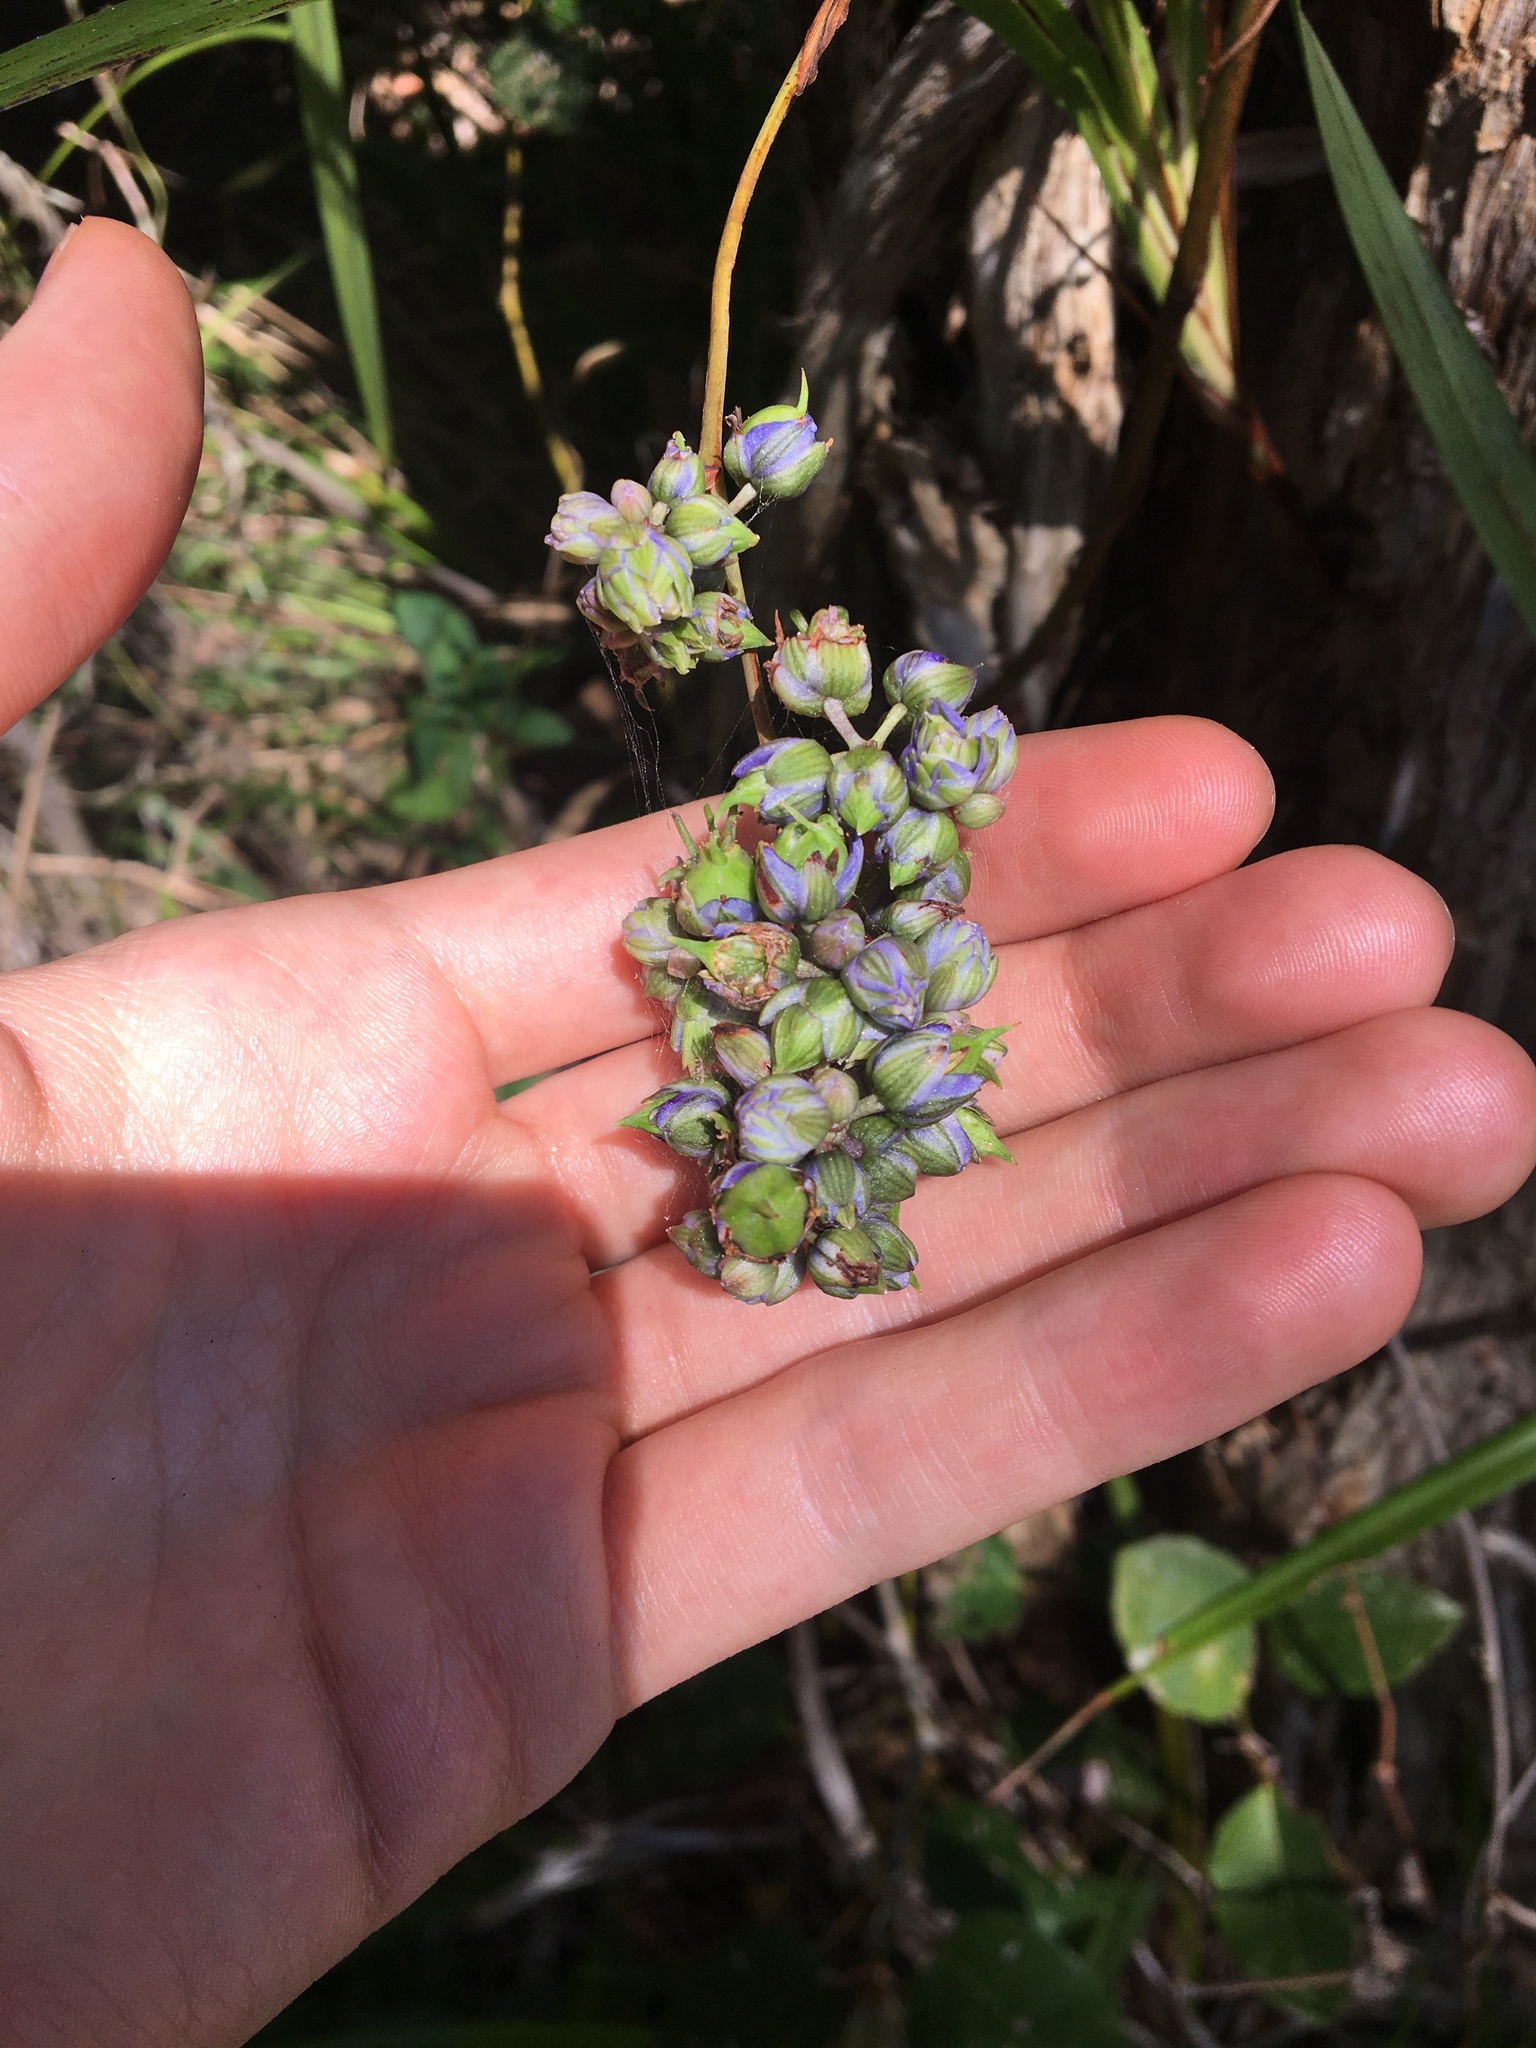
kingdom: Plantae
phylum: Tracheophyta
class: Liliopsida
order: Asparagales
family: Asphodelaceae
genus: Dianella
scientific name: Dianella caerulea
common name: Blue flax-lily
